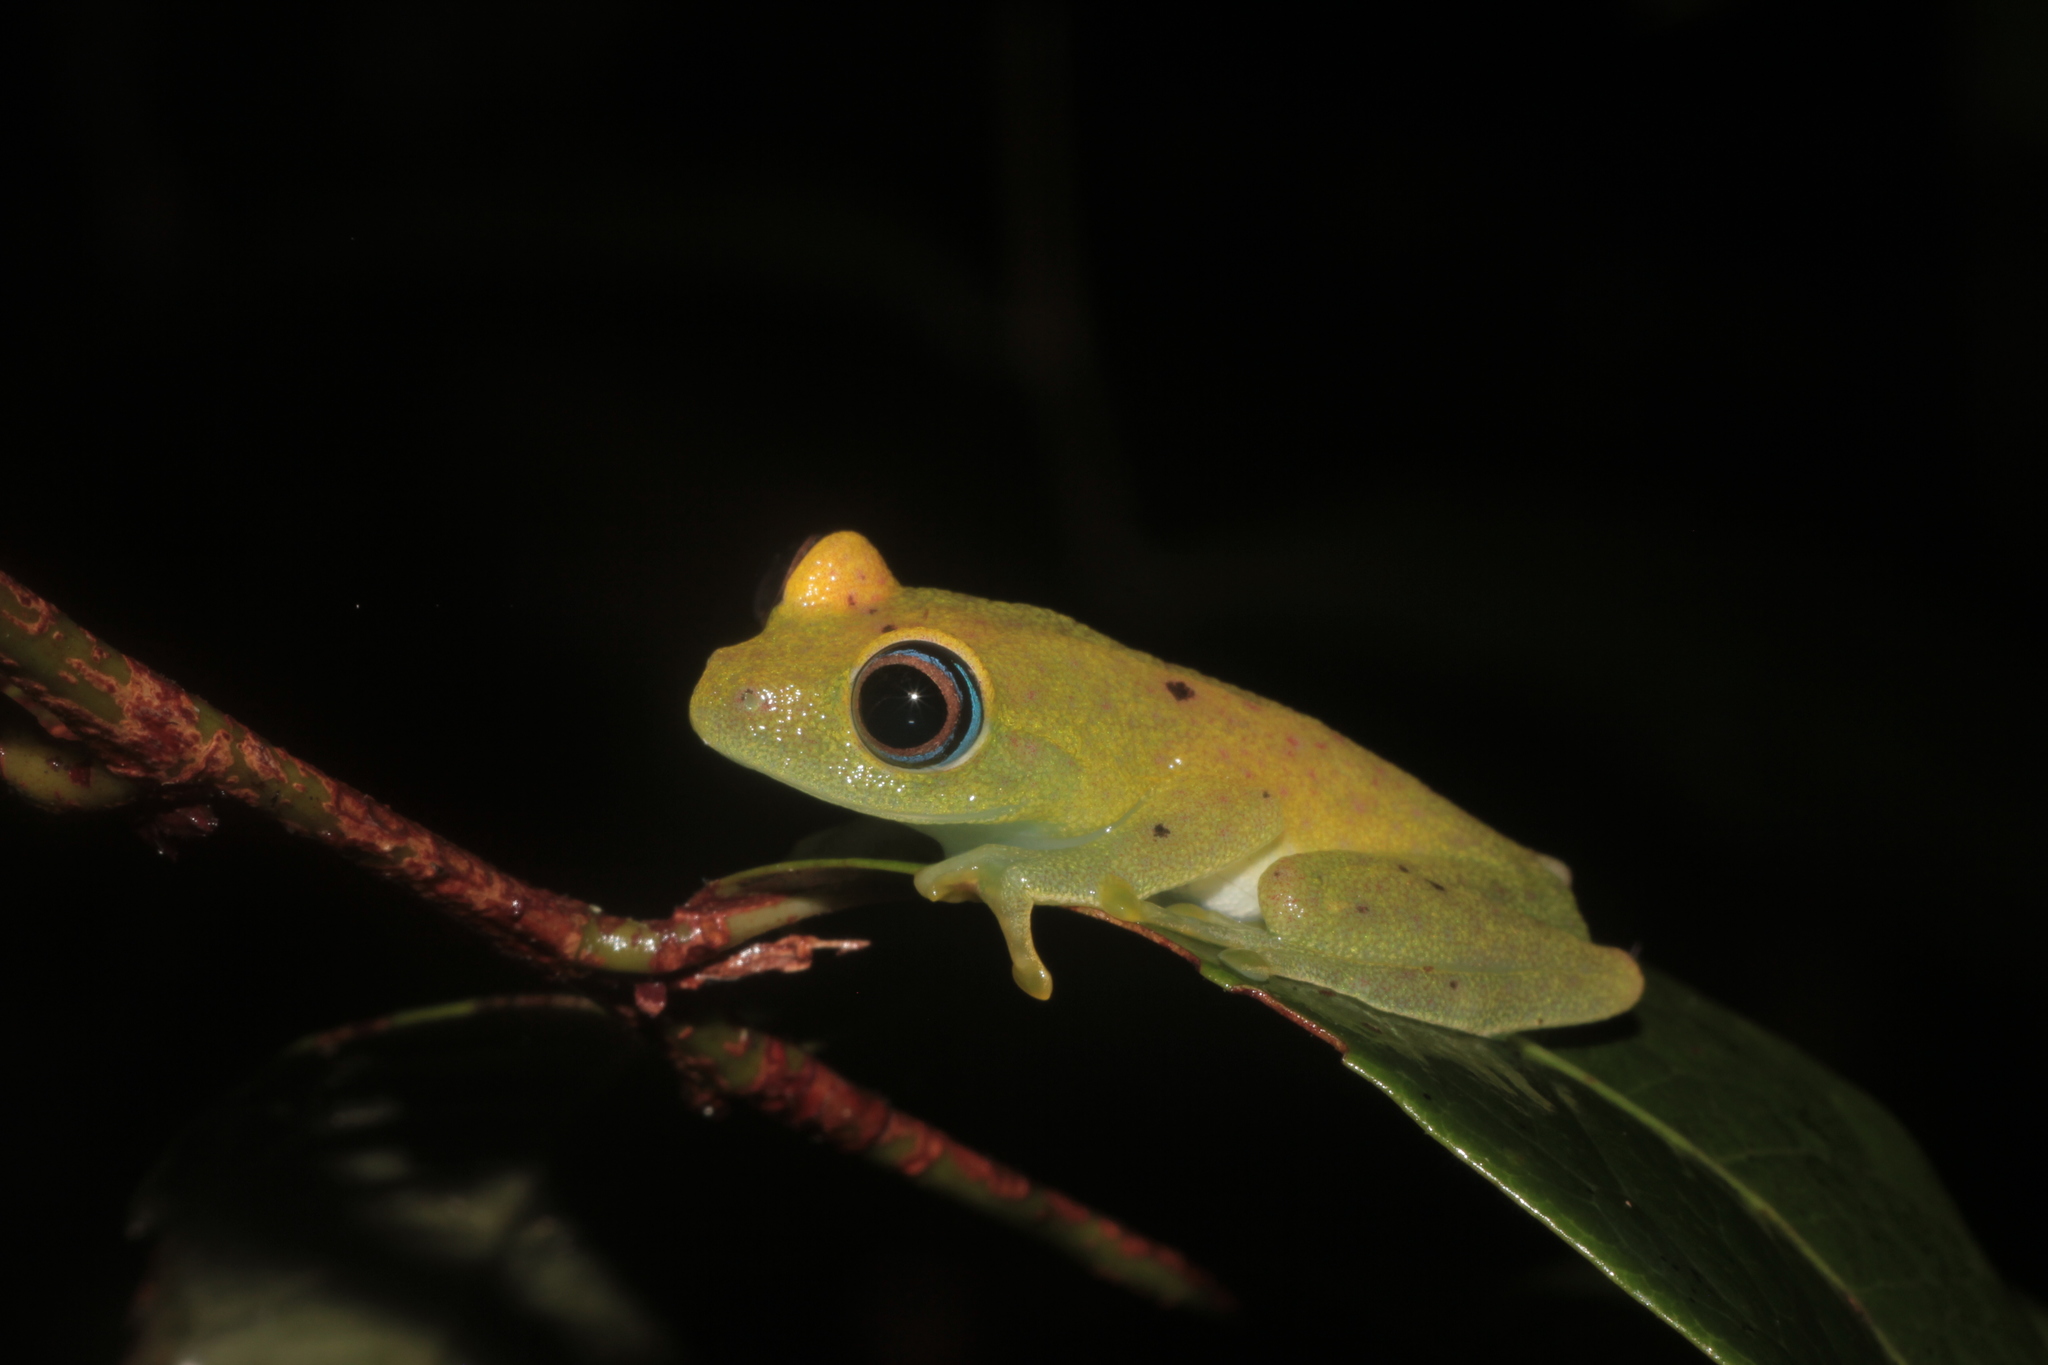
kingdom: Animalia
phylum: Chordata
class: Amphibia
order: Anura
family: Mantellidae
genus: Boophis
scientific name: Boophis viridis
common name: Green bright-eyed frog
